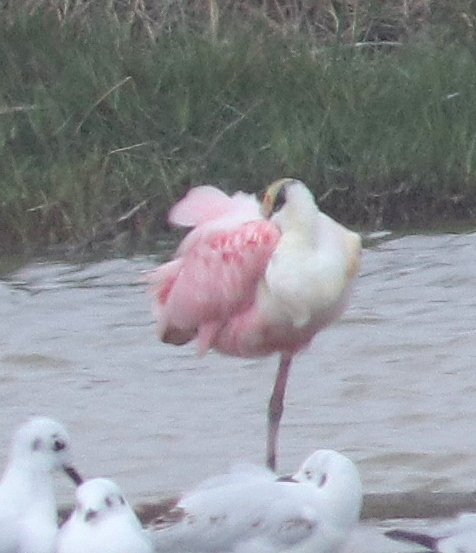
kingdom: Animalia
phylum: Chordata
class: Aves
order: Pelecaniformes
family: Threskiornithidae
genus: Platalea
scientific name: Platalea ajaja
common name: Roseate spoonbill
